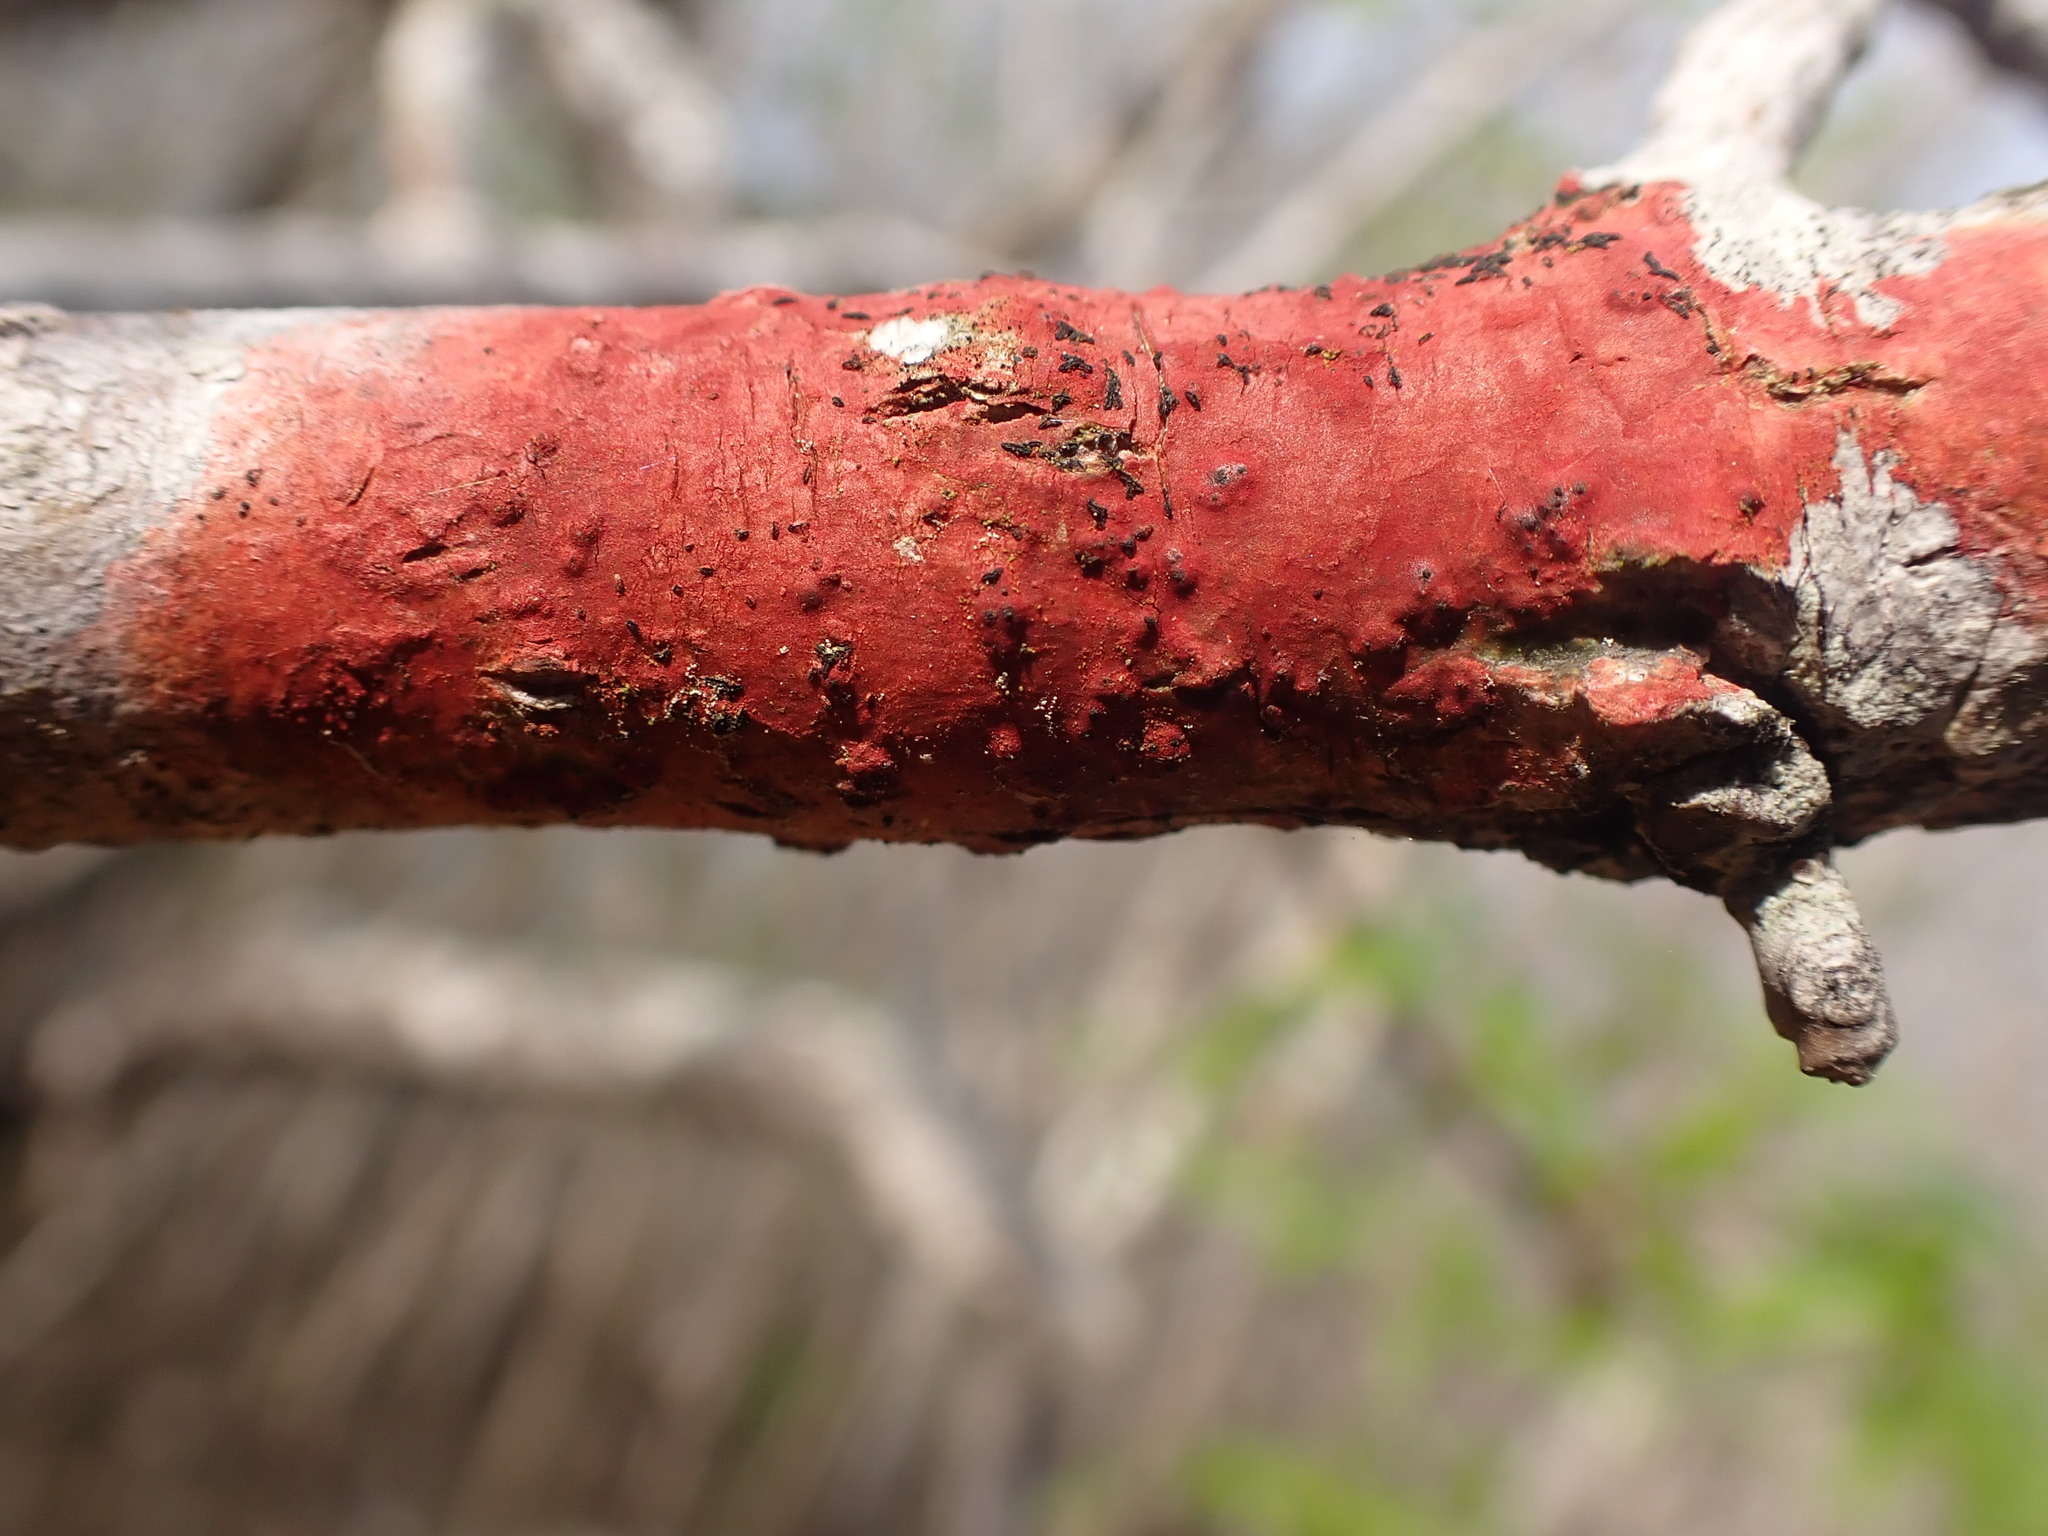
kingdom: Fungi
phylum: Ascomycota
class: Eurotiomycetes
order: Pyrenulales
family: Pyrenulaceae
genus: Pyrenula
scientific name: Pyrenula cruenta
